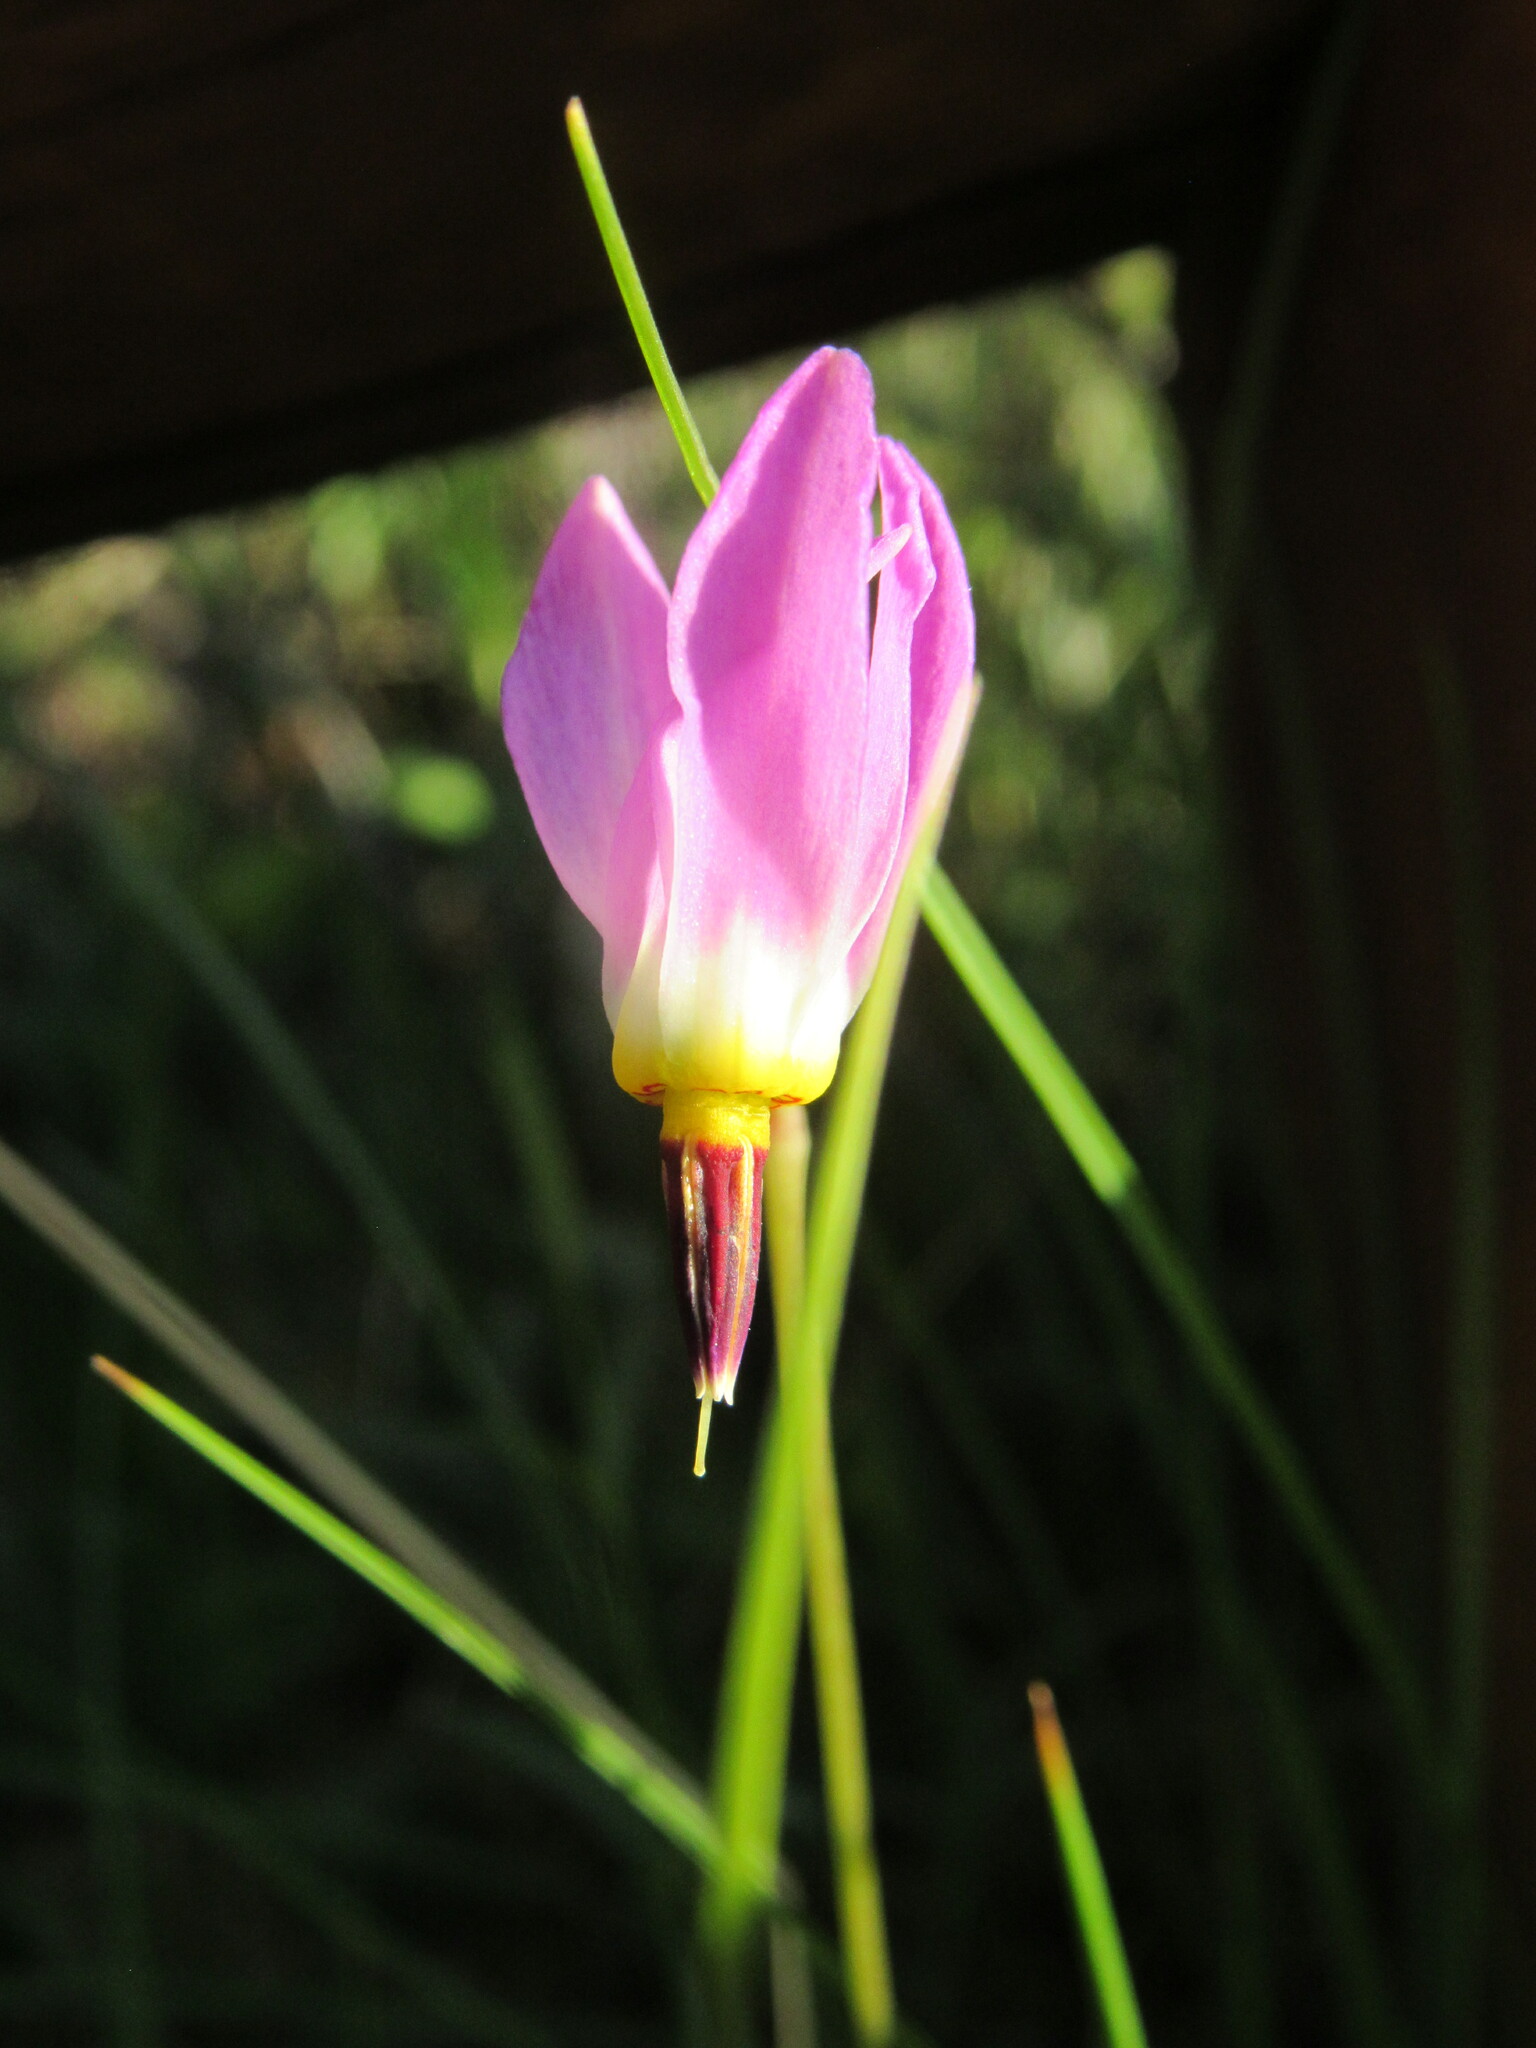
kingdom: Plantae
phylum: Tracheophyta
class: Magnoliopsida
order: Ericales
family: Primulaceae
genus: Dodecatheon
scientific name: Dodecatheon pulchellum
